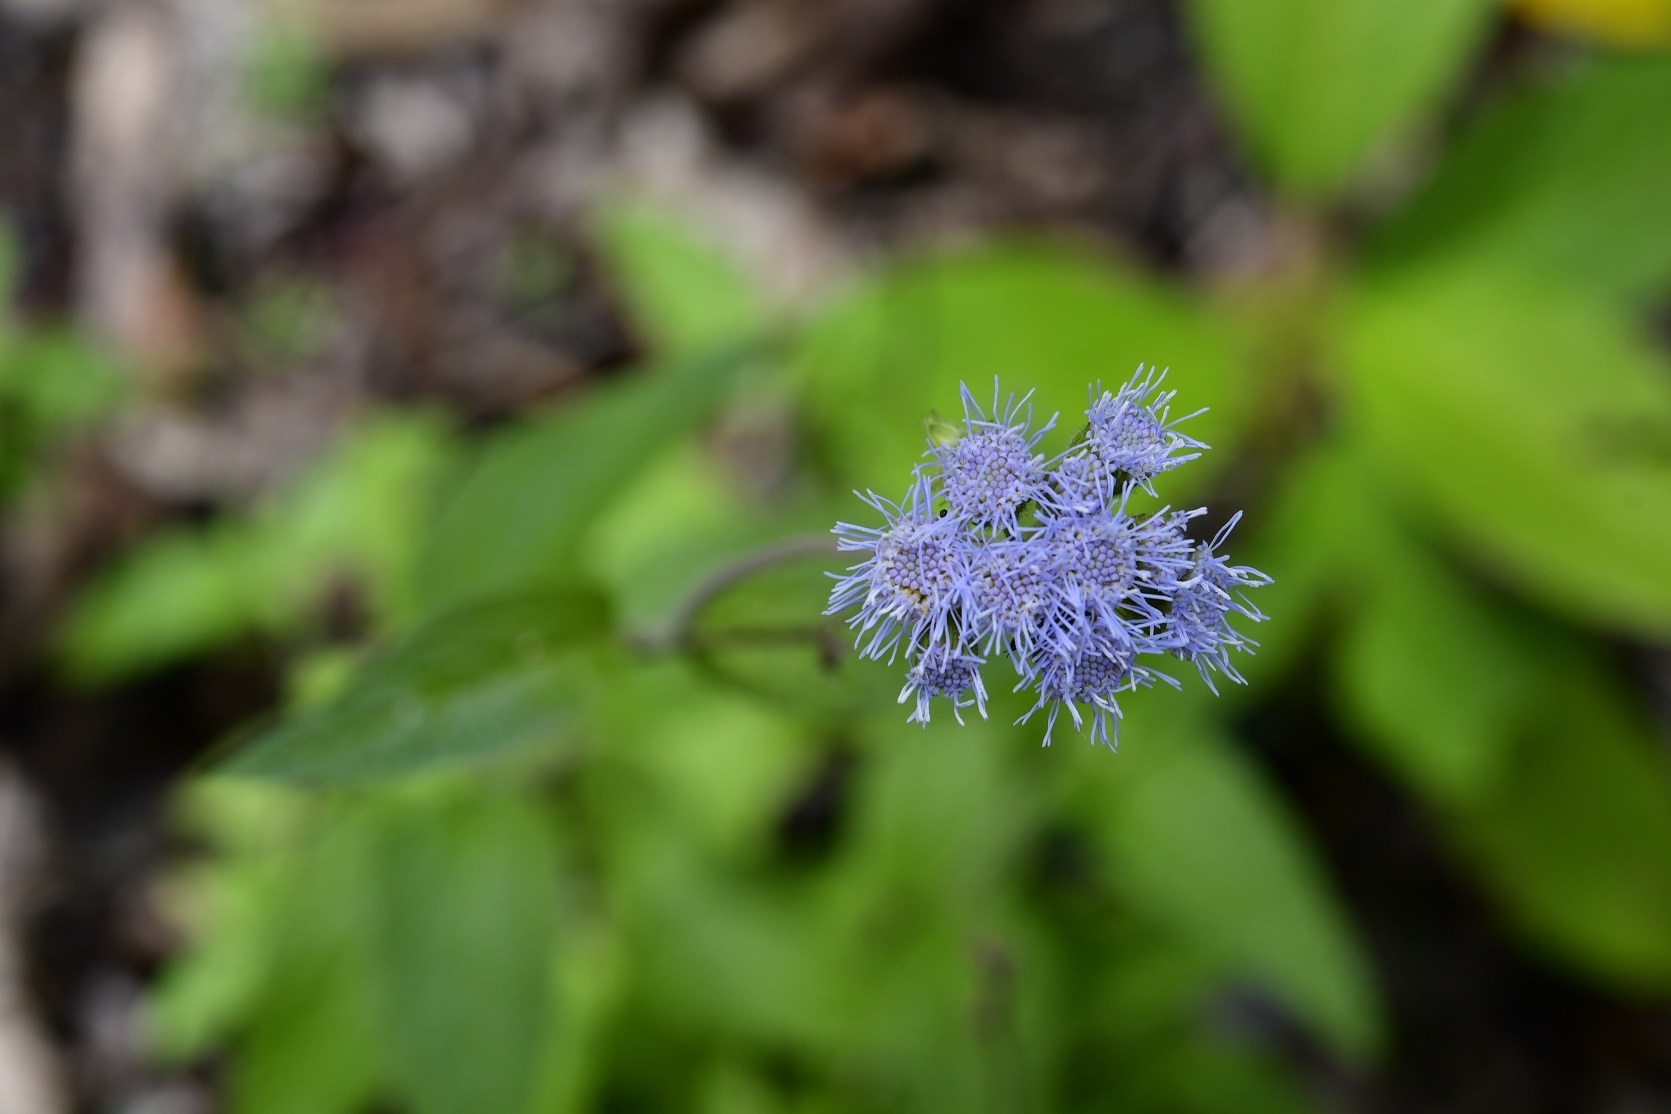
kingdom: Plantae
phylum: Tracheophyta
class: Magnoliopsida
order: Asterales
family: Asteraceae
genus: Ageratum
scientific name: Ageratum corymbosum
